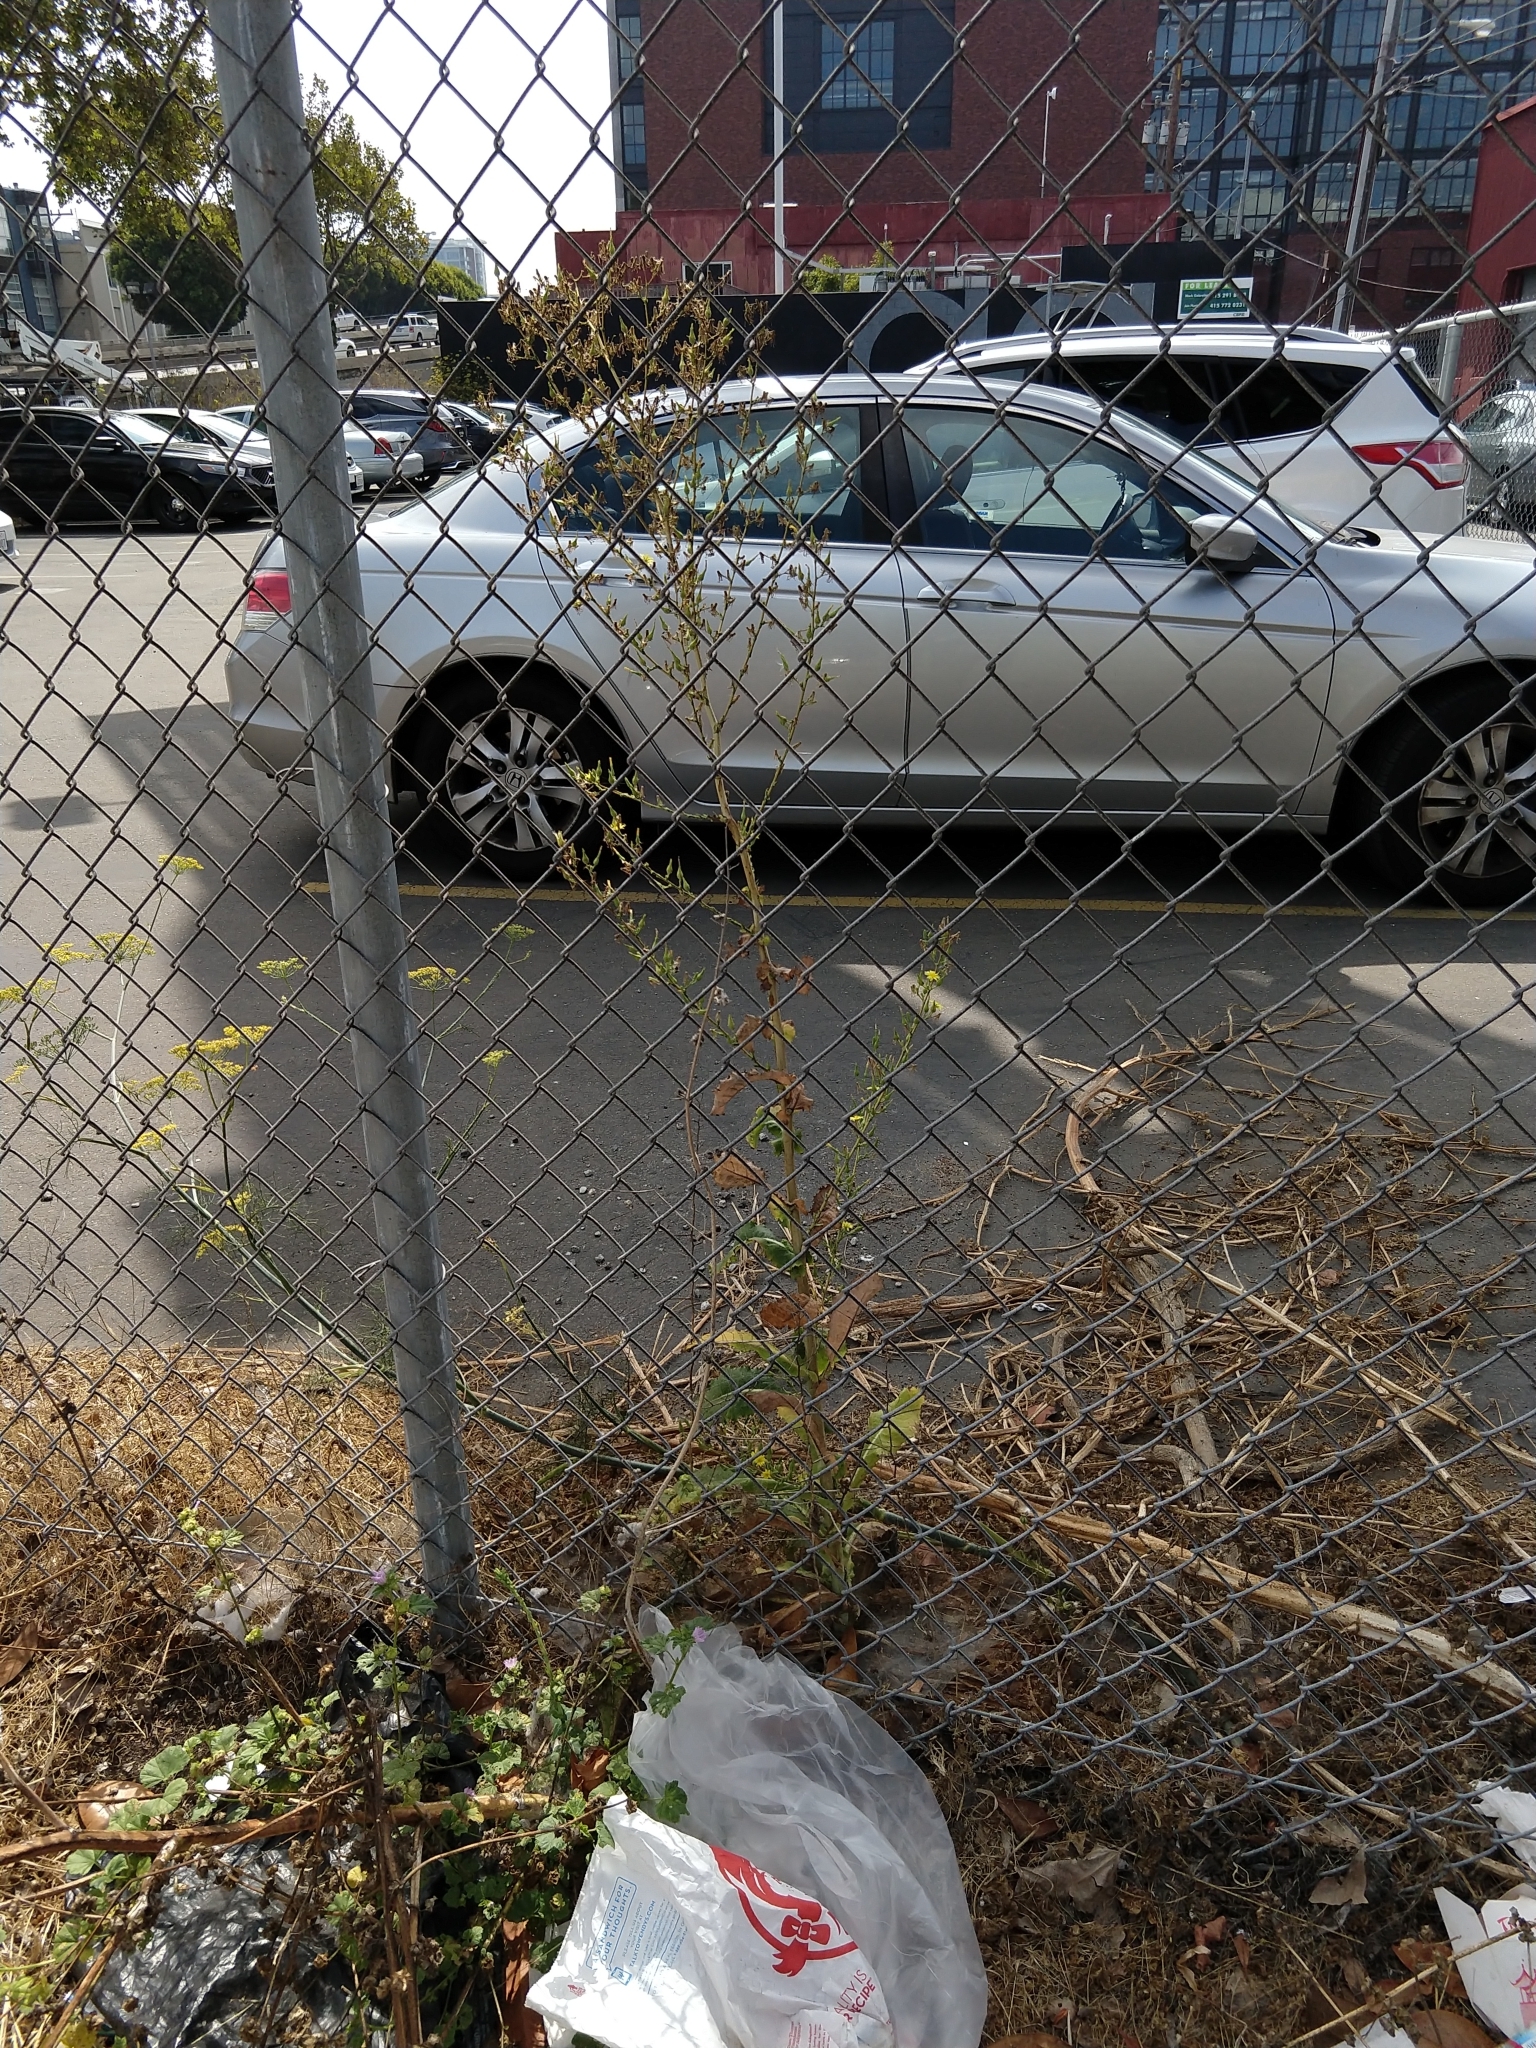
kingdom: Plantae
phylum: Tracheophyta
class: Magnoliopsida
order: Asterales
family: Asteraceae
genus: Lactuca
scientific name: Lactuca virosa
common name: Great lettuce
